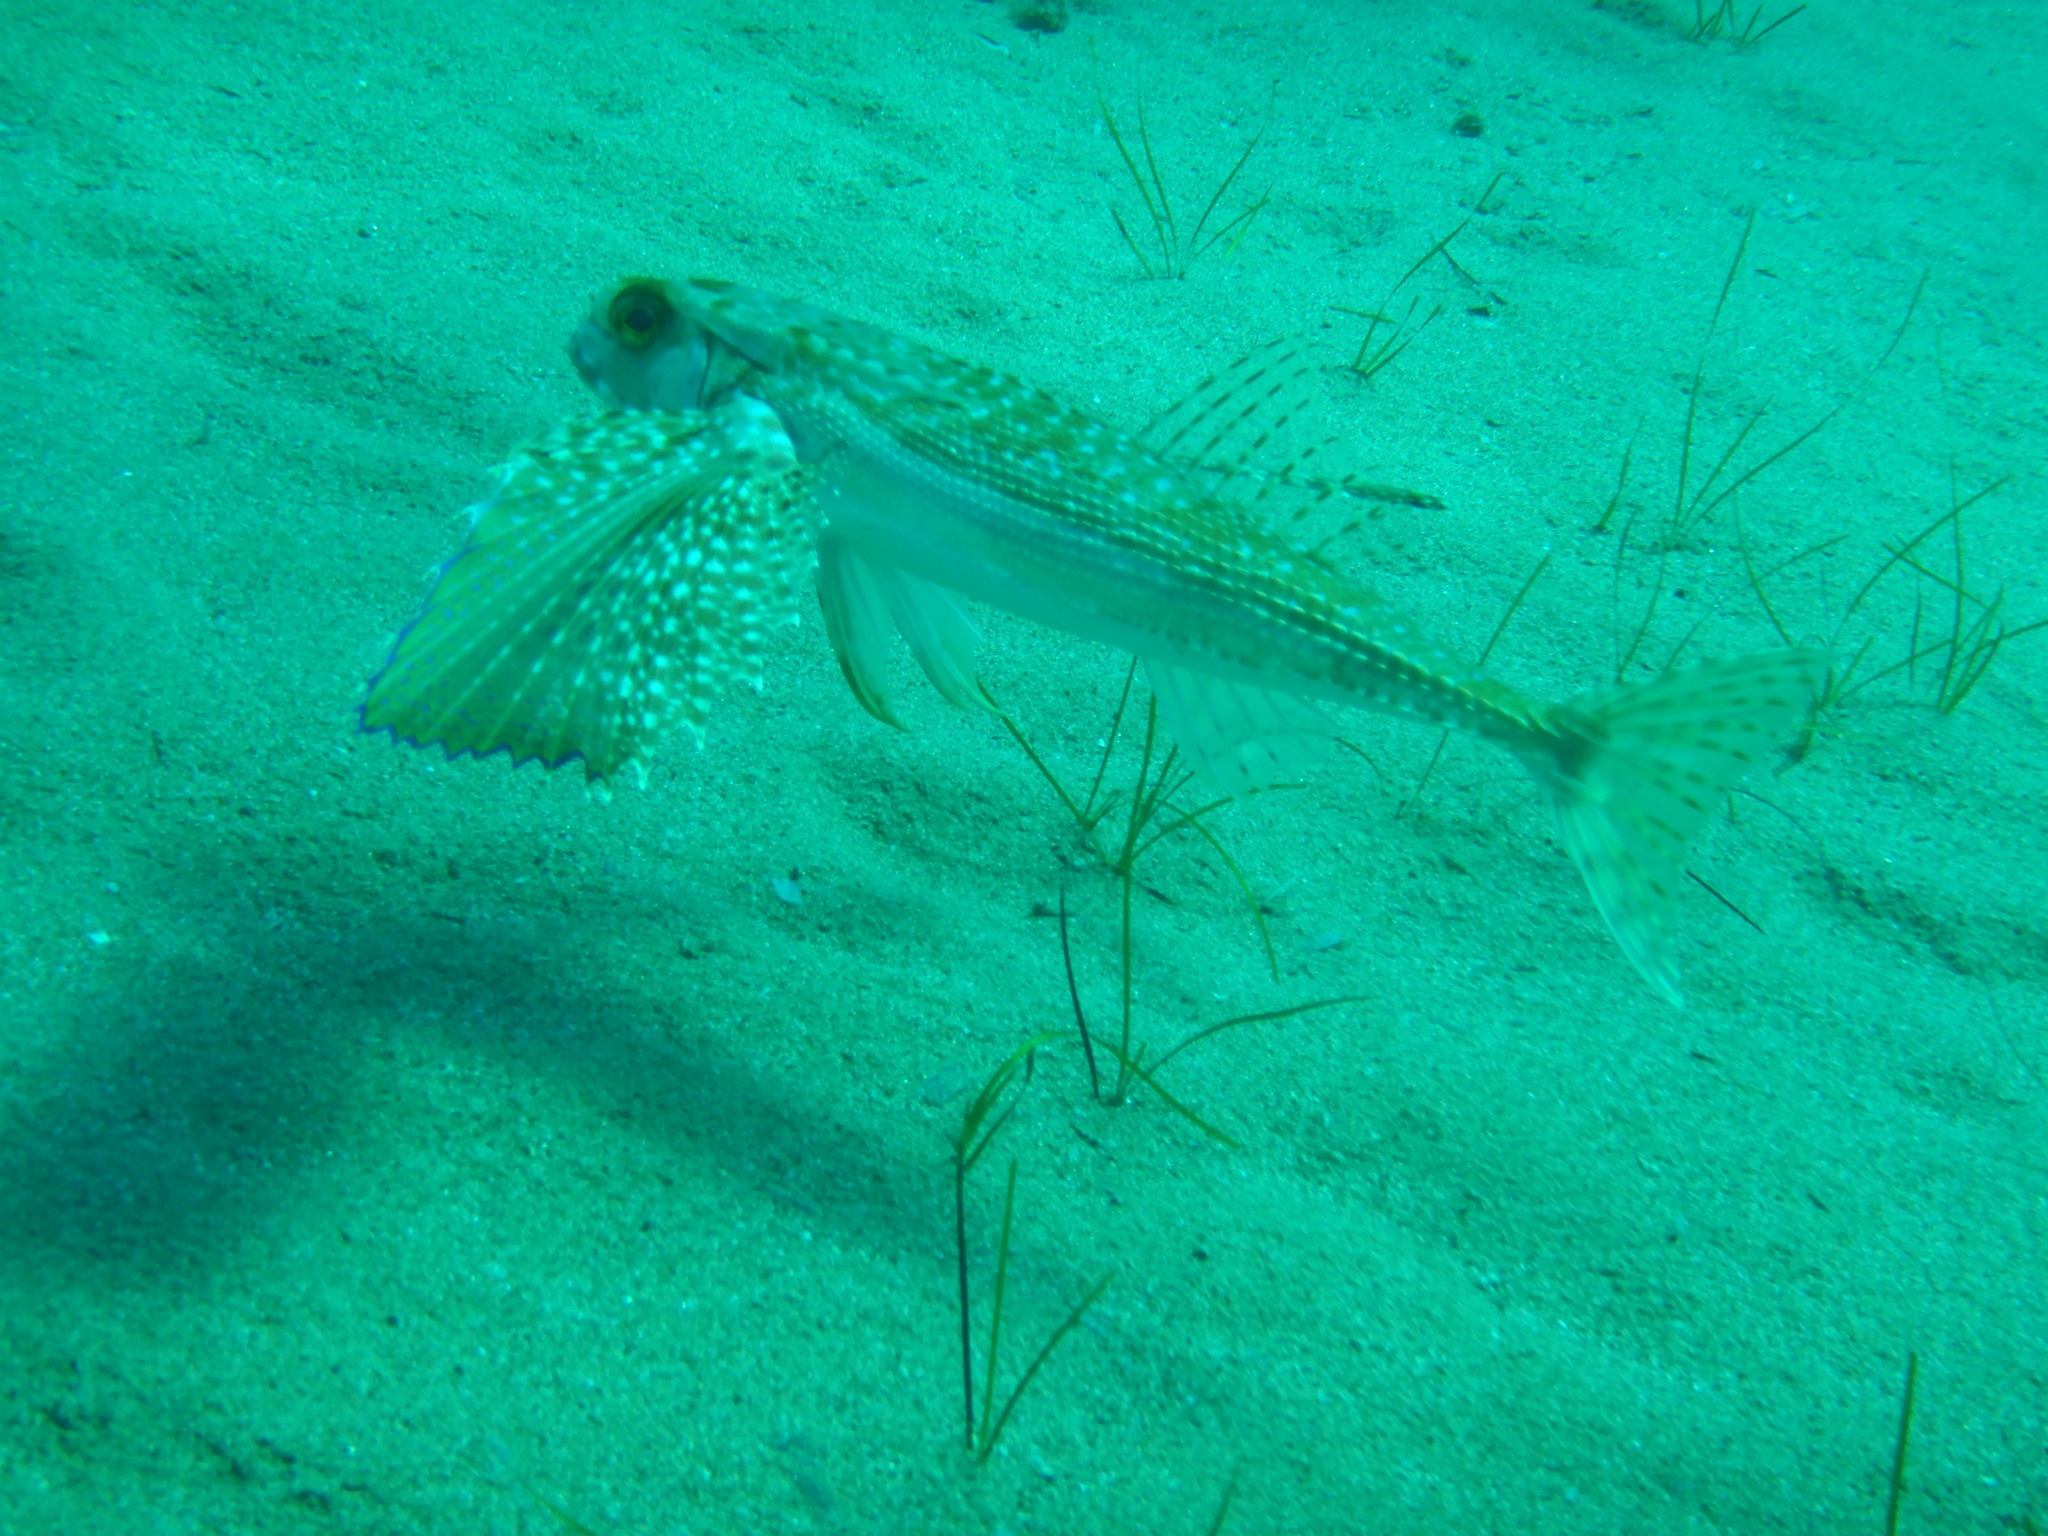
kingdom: Animalia
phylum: Chordata
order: Scorpaeniformes
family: Dactylopteridae
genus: Dactylopterus
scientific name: Dactylopterus volitans
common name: Flying gurnard
